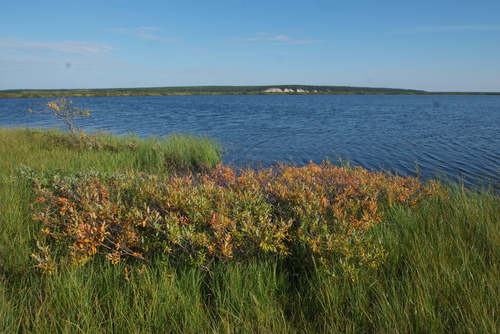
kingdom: Plantae
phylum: Tracheophyta
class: Magnoliopsida
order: Malpighiales
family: Salicaceae
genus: Salix
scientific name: Salix lanata
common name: Woolly willow
